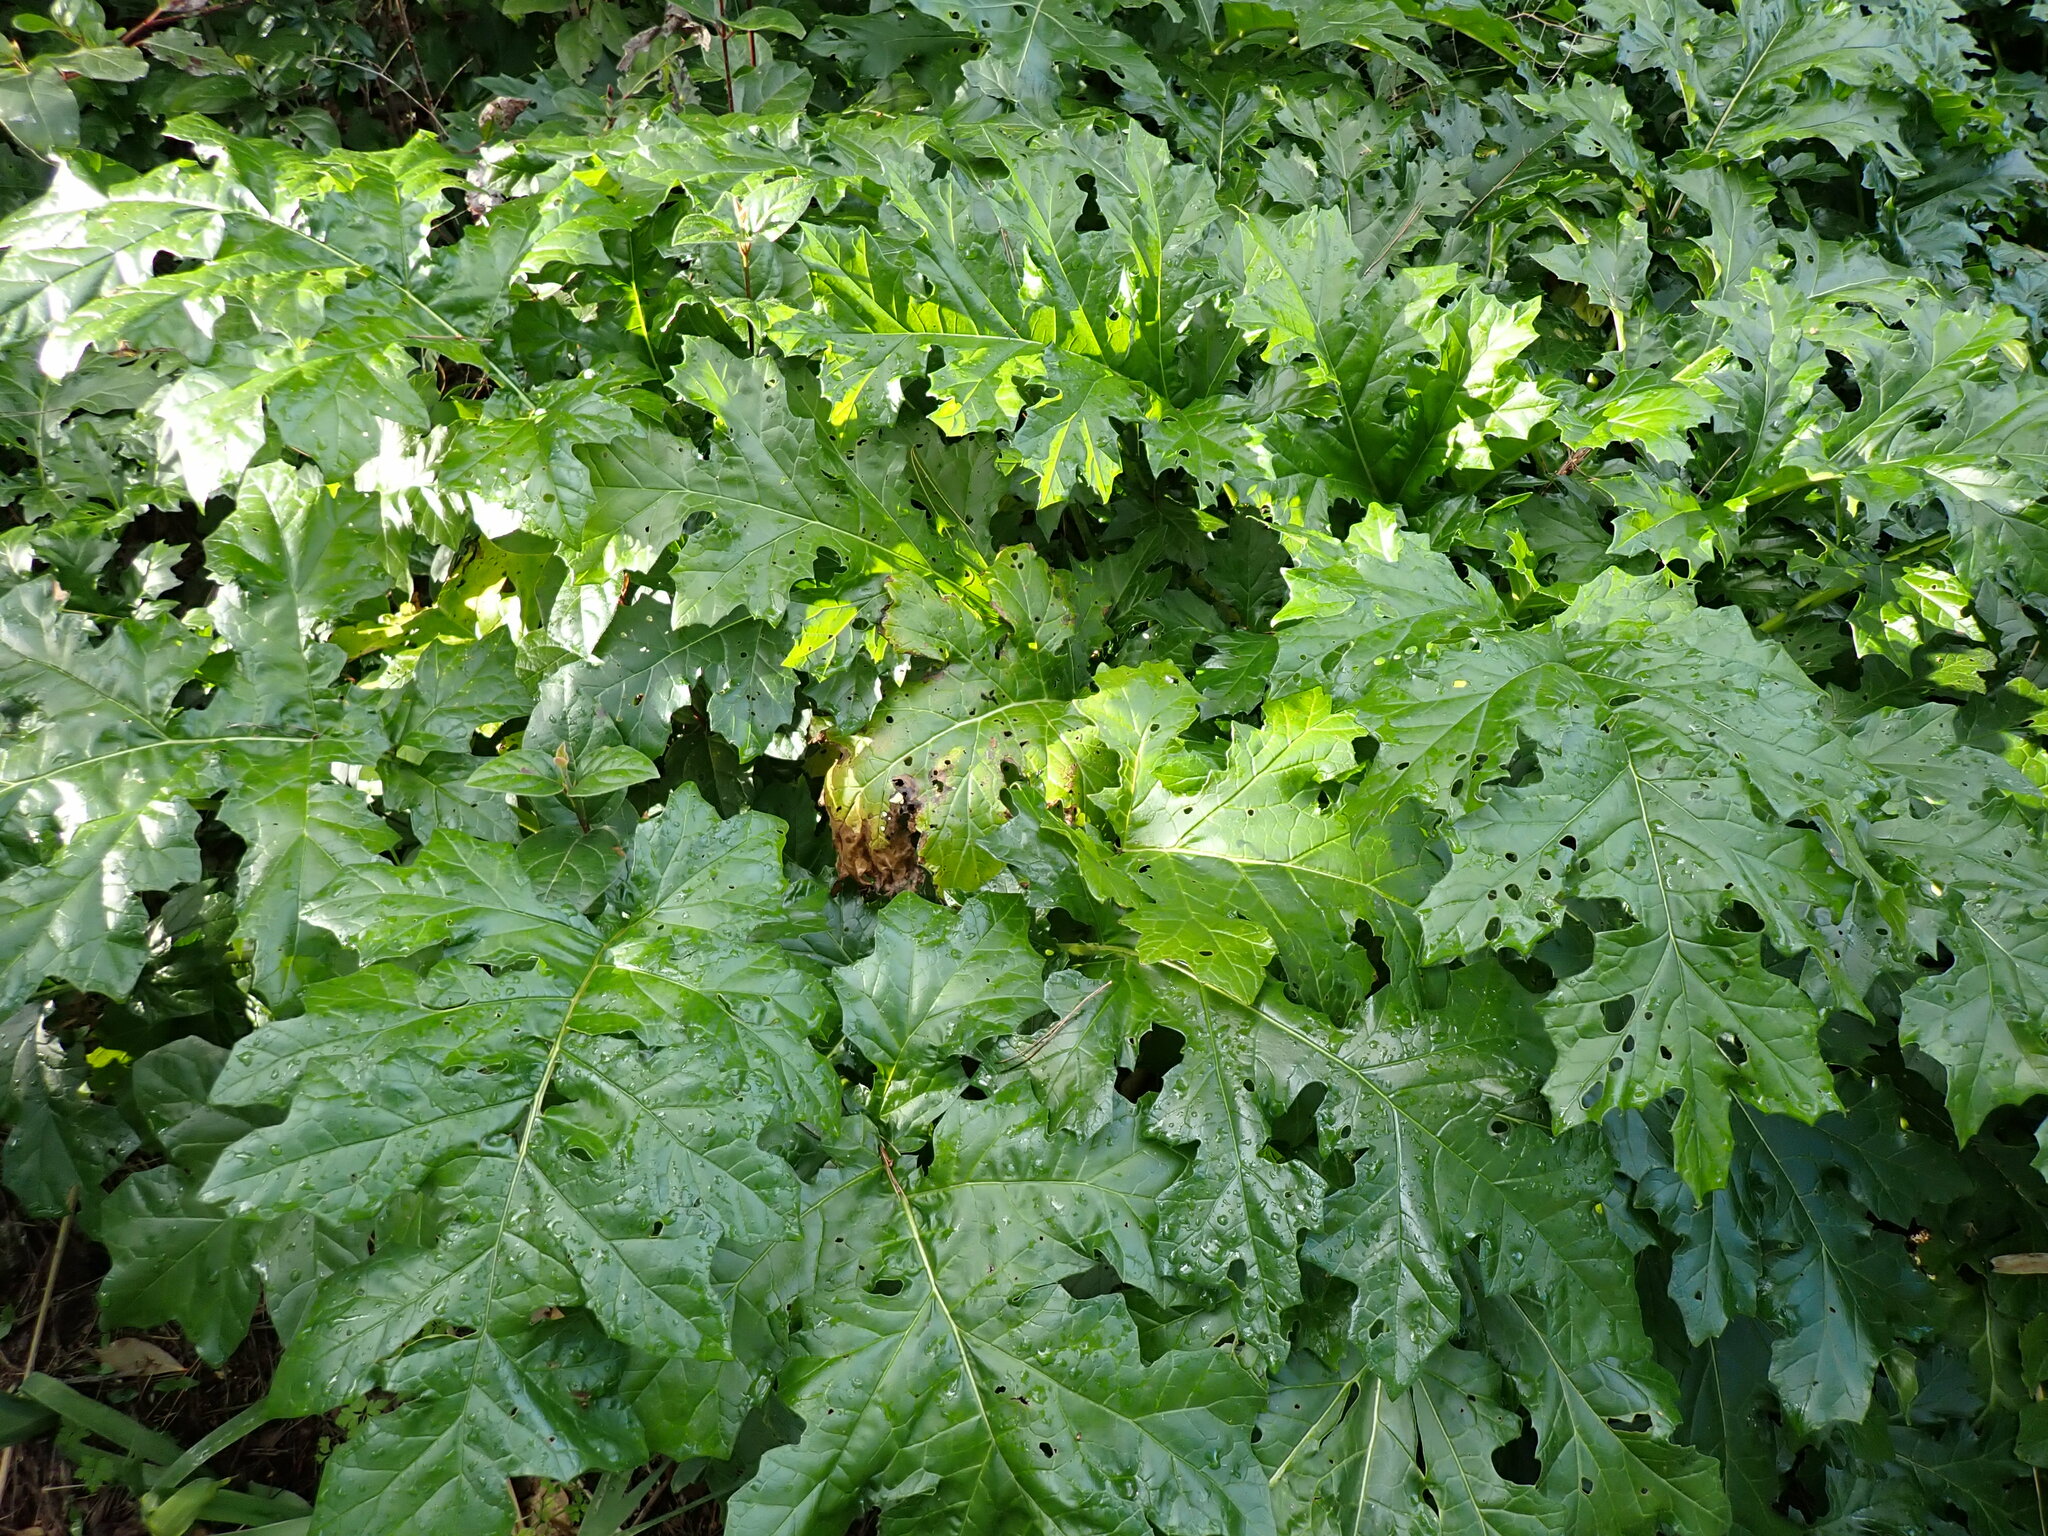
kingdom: Plantae
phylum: Tracheophyta
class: Magnoliopsida
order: Lamiales
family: Acanthaceae
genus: Acanthus
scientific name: Acanthus mollis
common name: Bear's-breech
